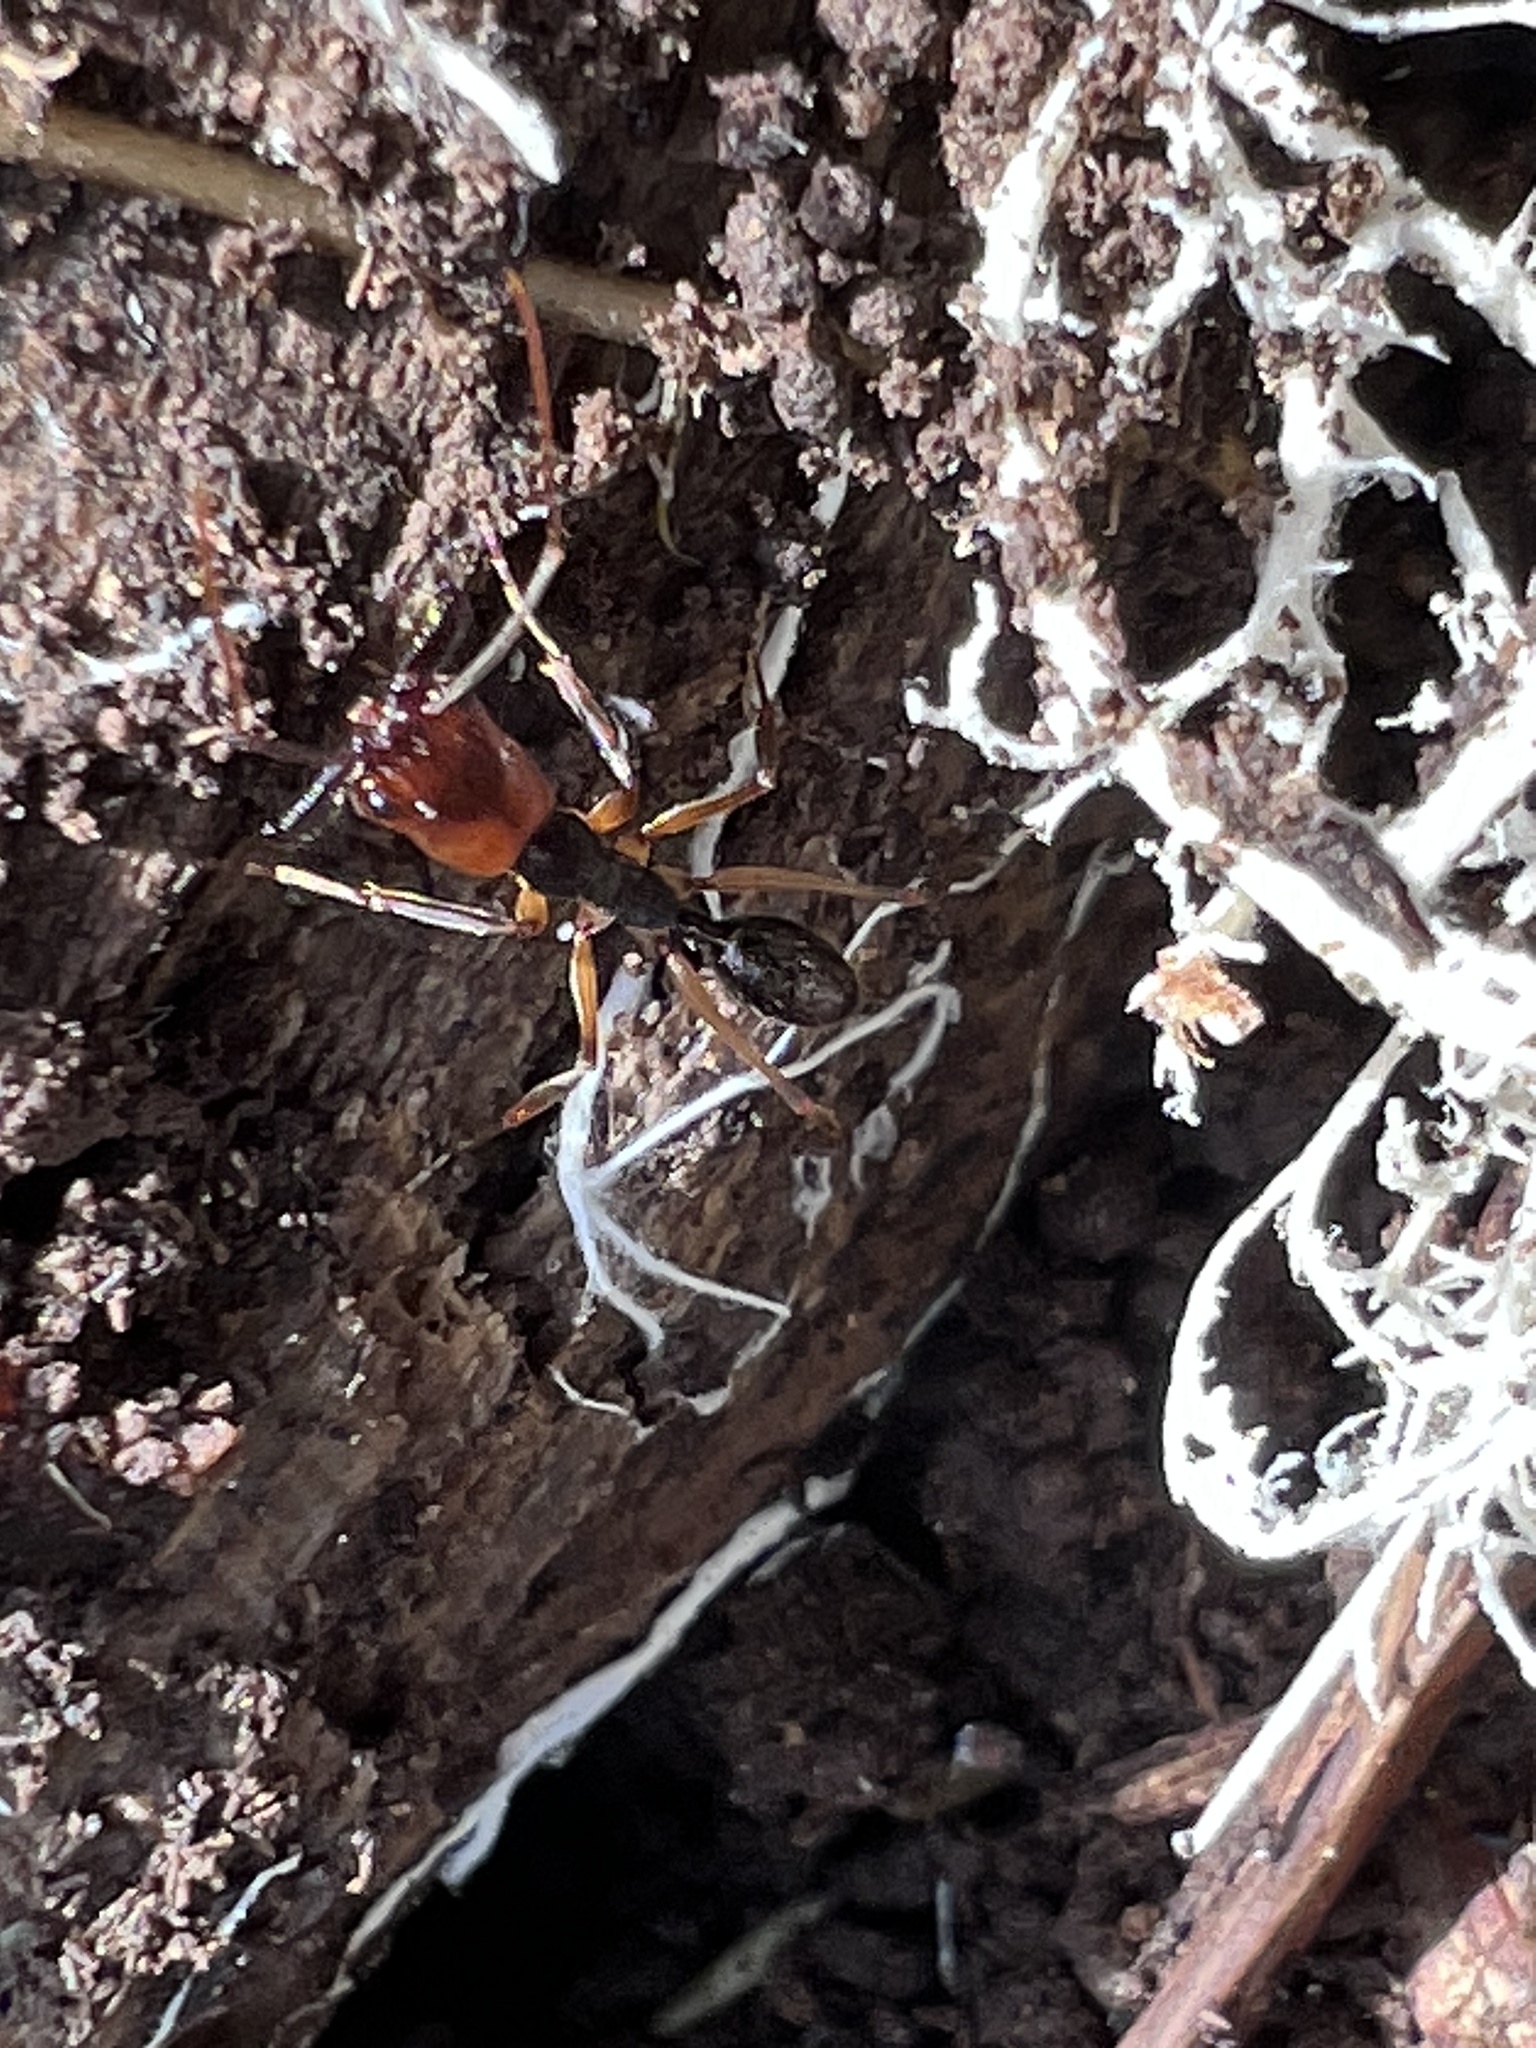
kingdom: Animalia
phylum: Arthropoda
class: Insecta
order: Hymenoptera
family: Formicidae
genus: Odontomachus
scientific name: Odontomachus erythrocephalus
